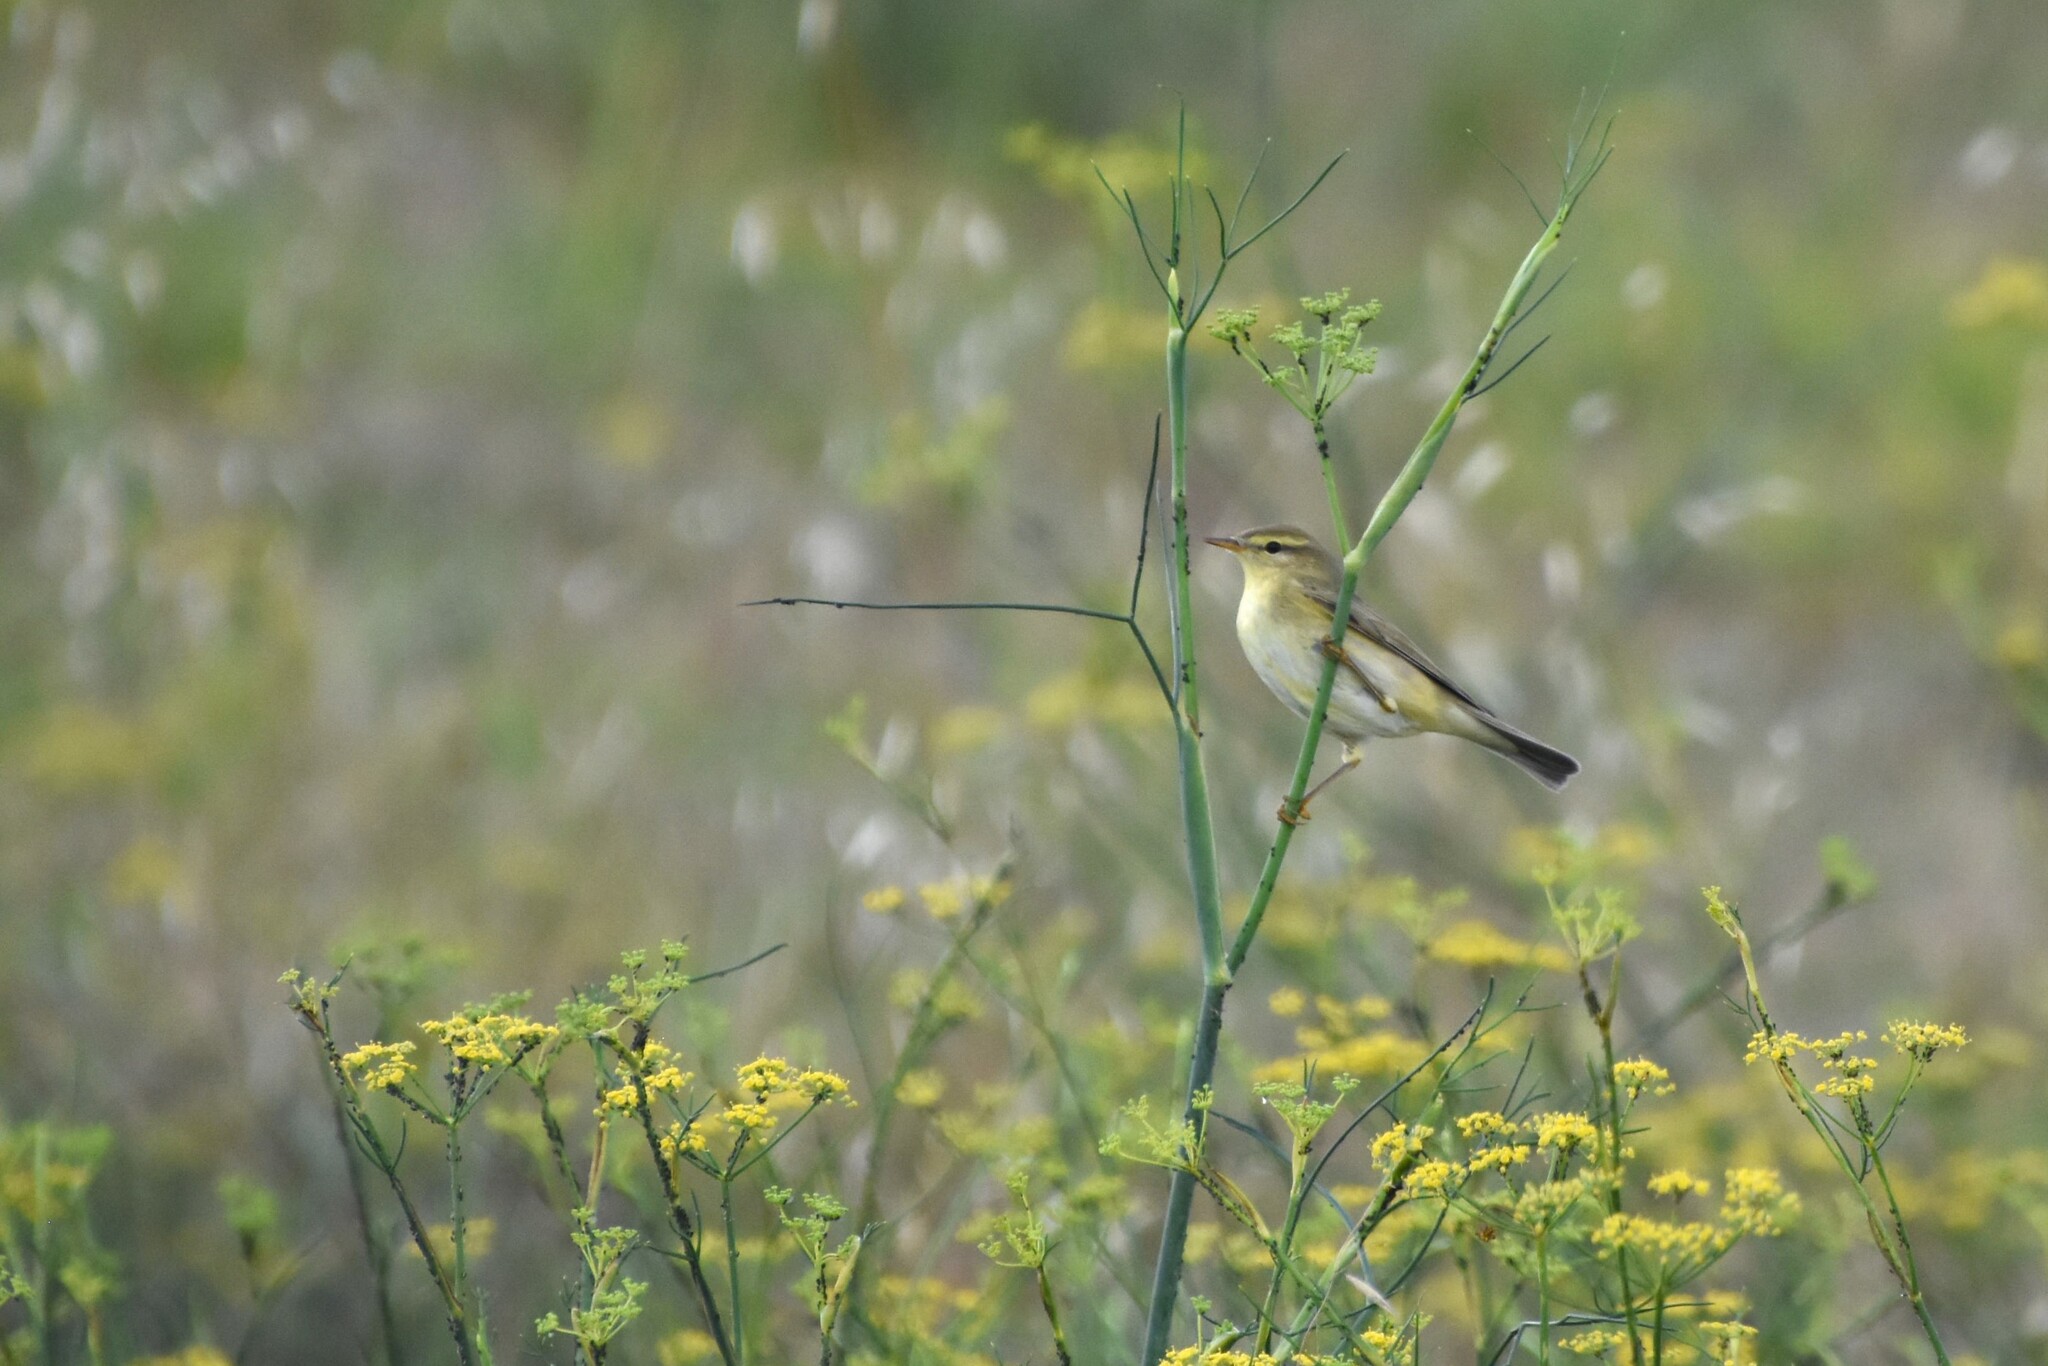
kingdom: Animalia
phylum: Chordata
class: Aves
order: Passeriformes
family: Phylloscopidae
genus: Phylloscopus
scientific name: Phylloscopus trochilus
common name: Willow warbler
